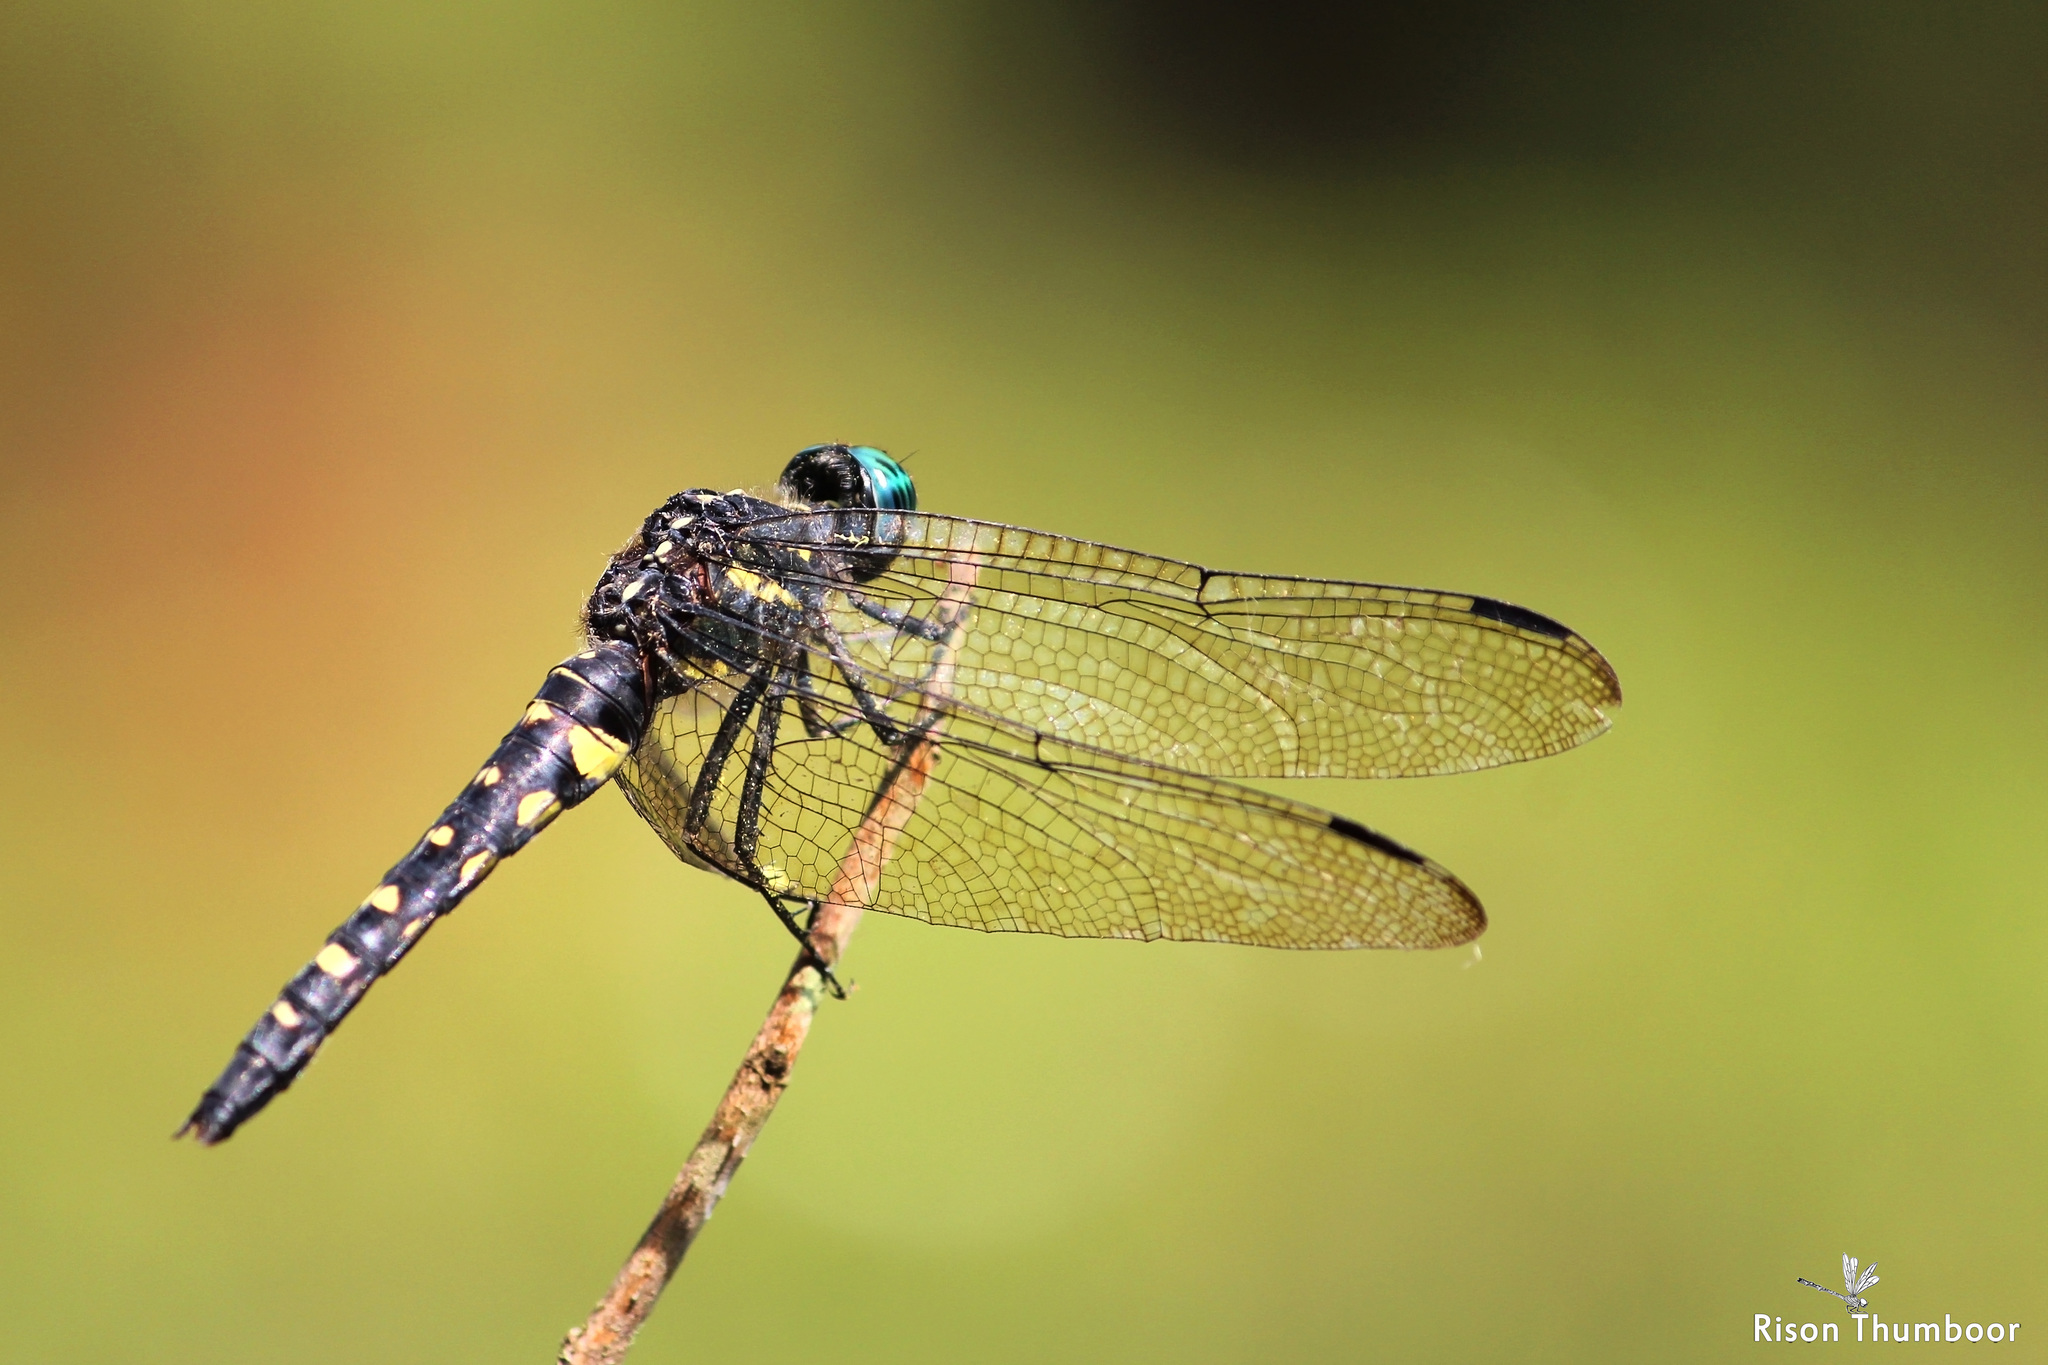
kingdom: Animalia
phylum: Arthropoda
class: Insecta
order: Odonata
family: Libellulidae
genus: Onychothemis
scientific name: Onychothemis testacea
